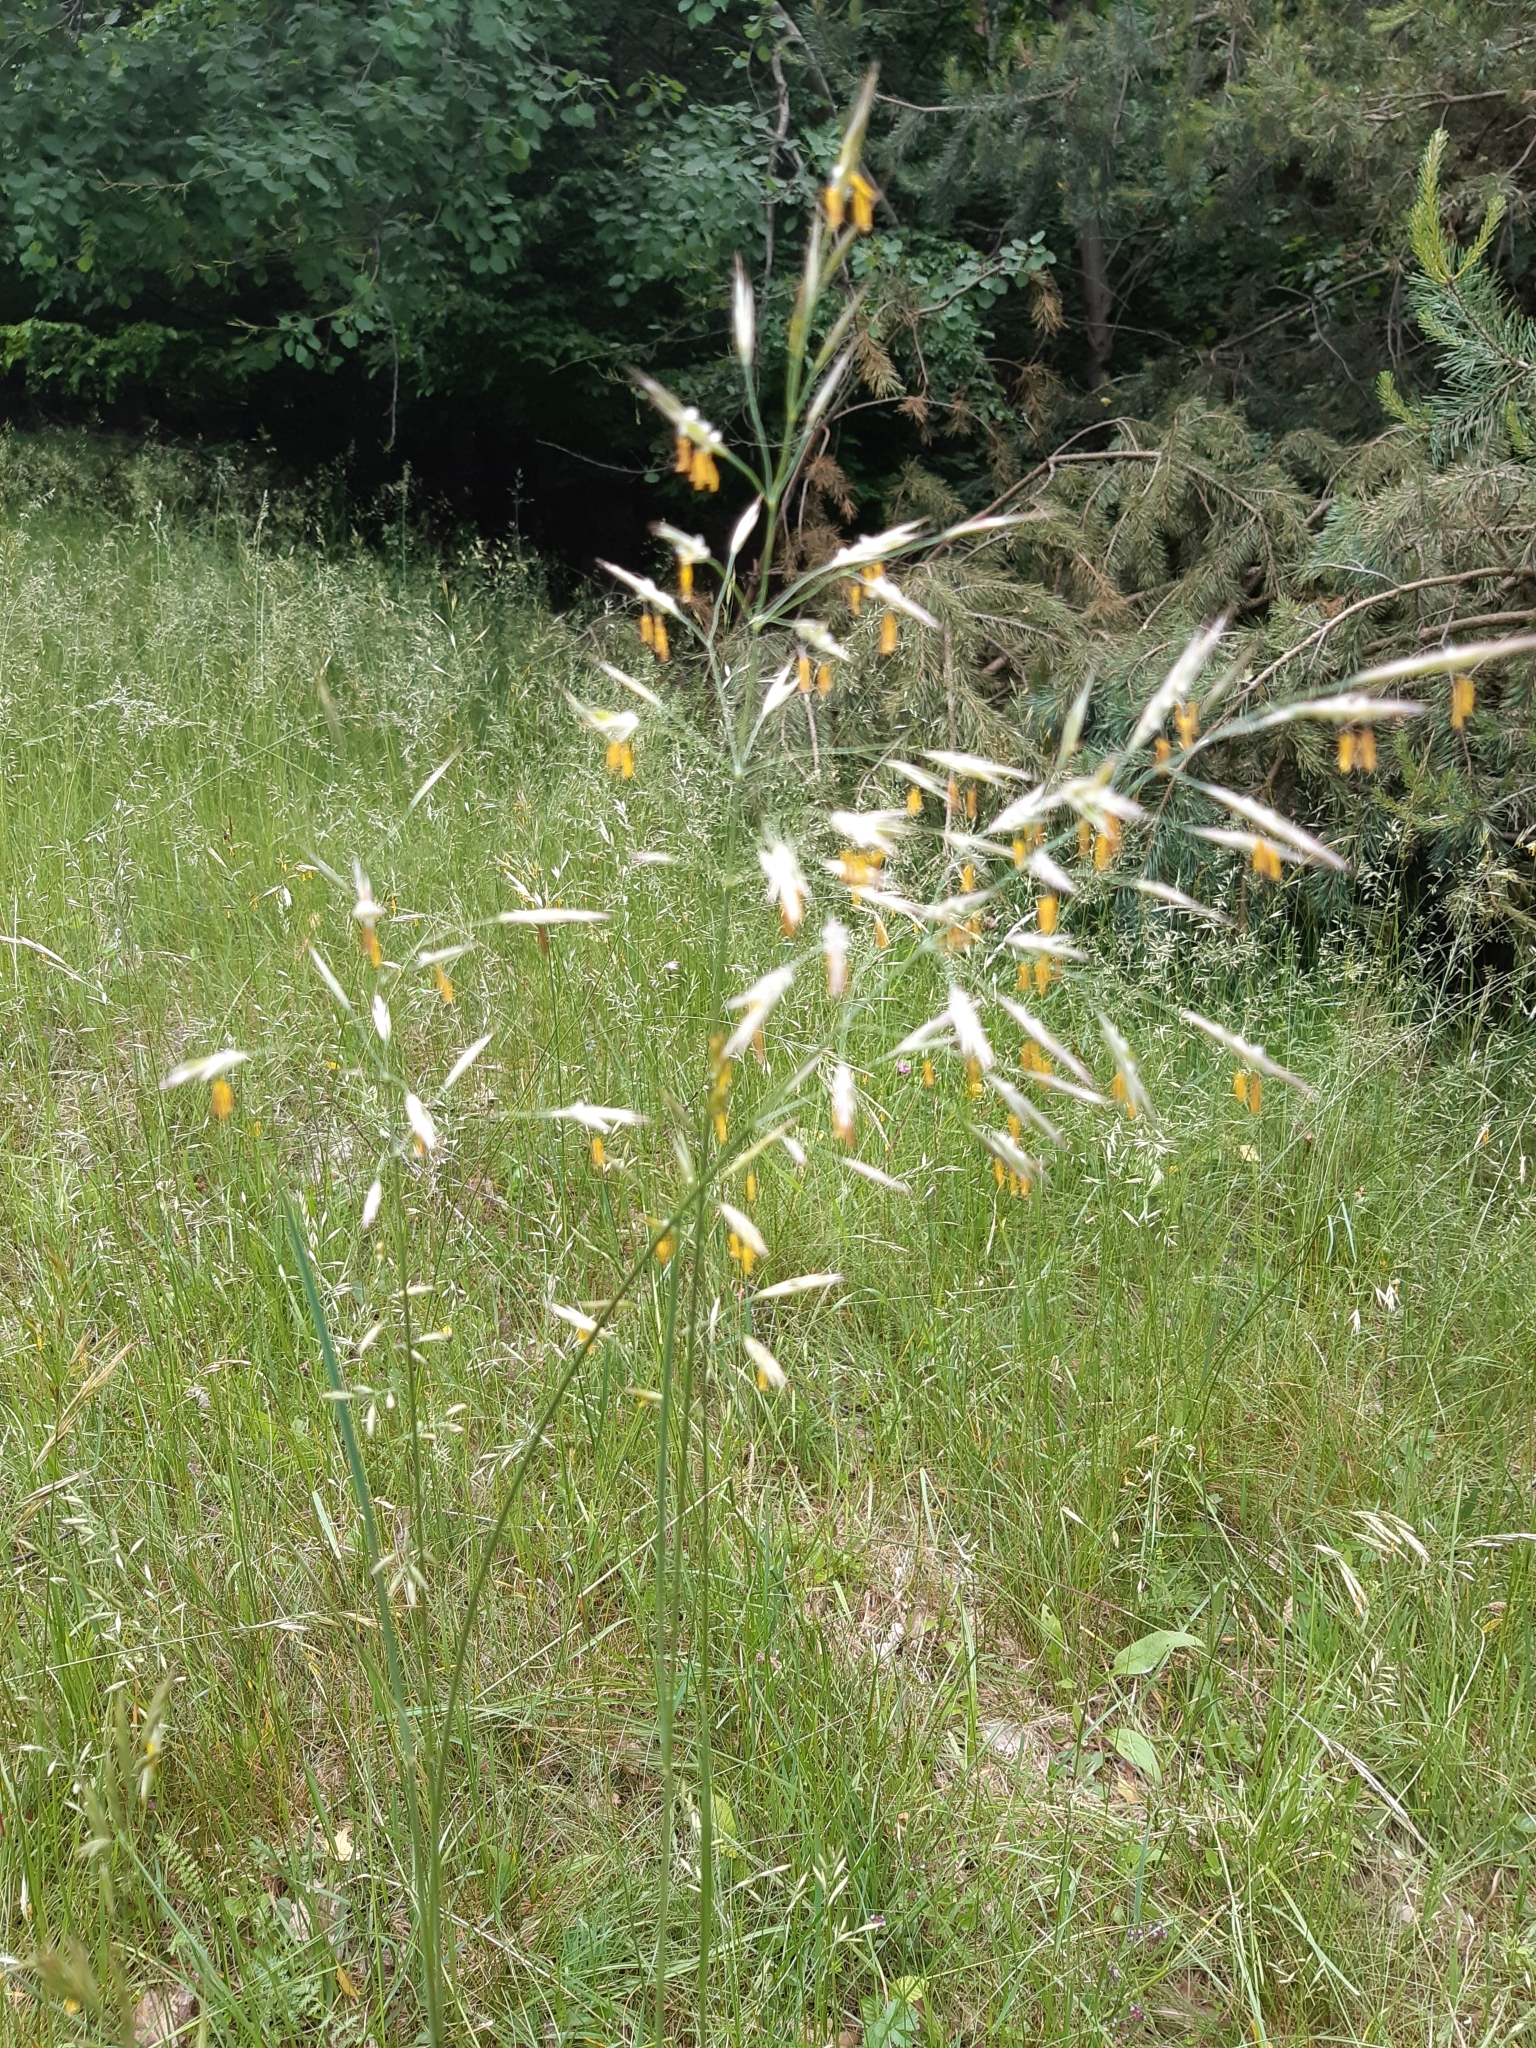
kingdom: Plantae
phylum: Tracheophyta
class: Liliopsida
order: Poales
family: Poaceae
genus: Bromus
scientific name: Bromus erectus
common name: Erect brome
